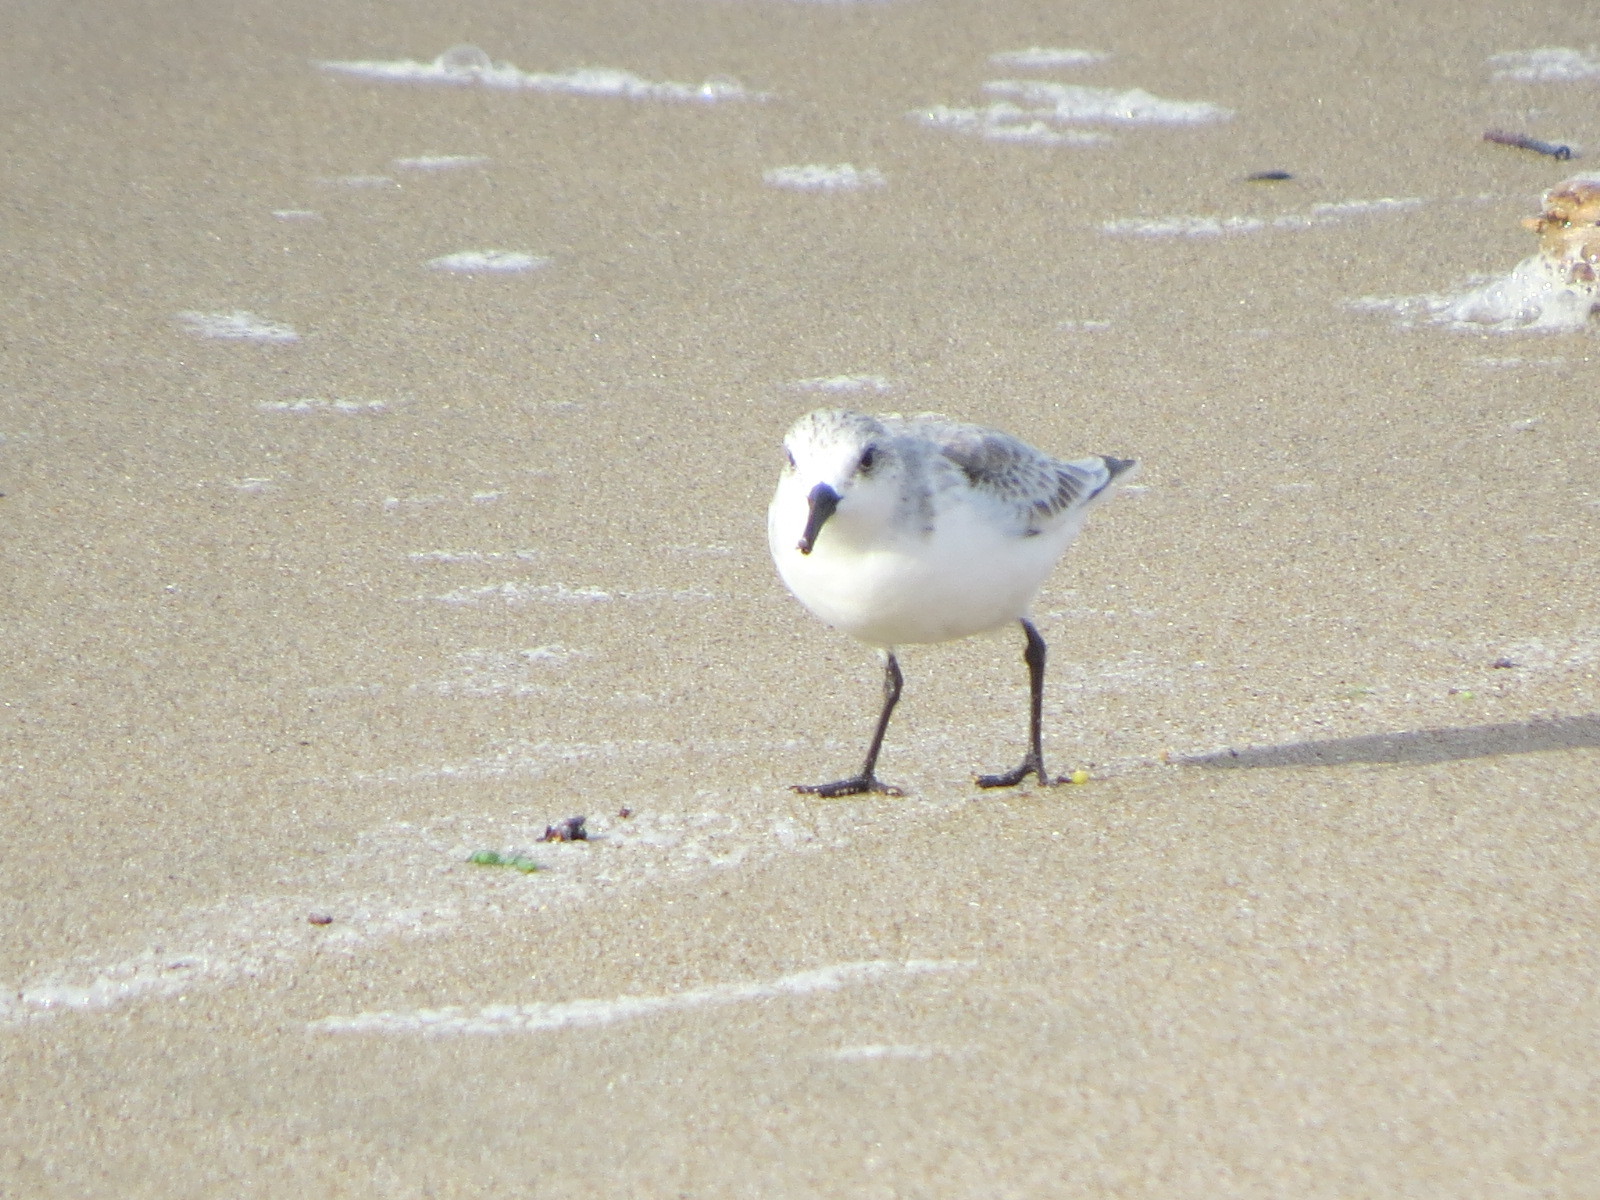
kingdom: Animalia
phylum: Chordata
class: Aves
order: Charadriiformes
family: Scolopacidae
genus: Calidris
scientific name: Calidris alba
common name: Sanderling
